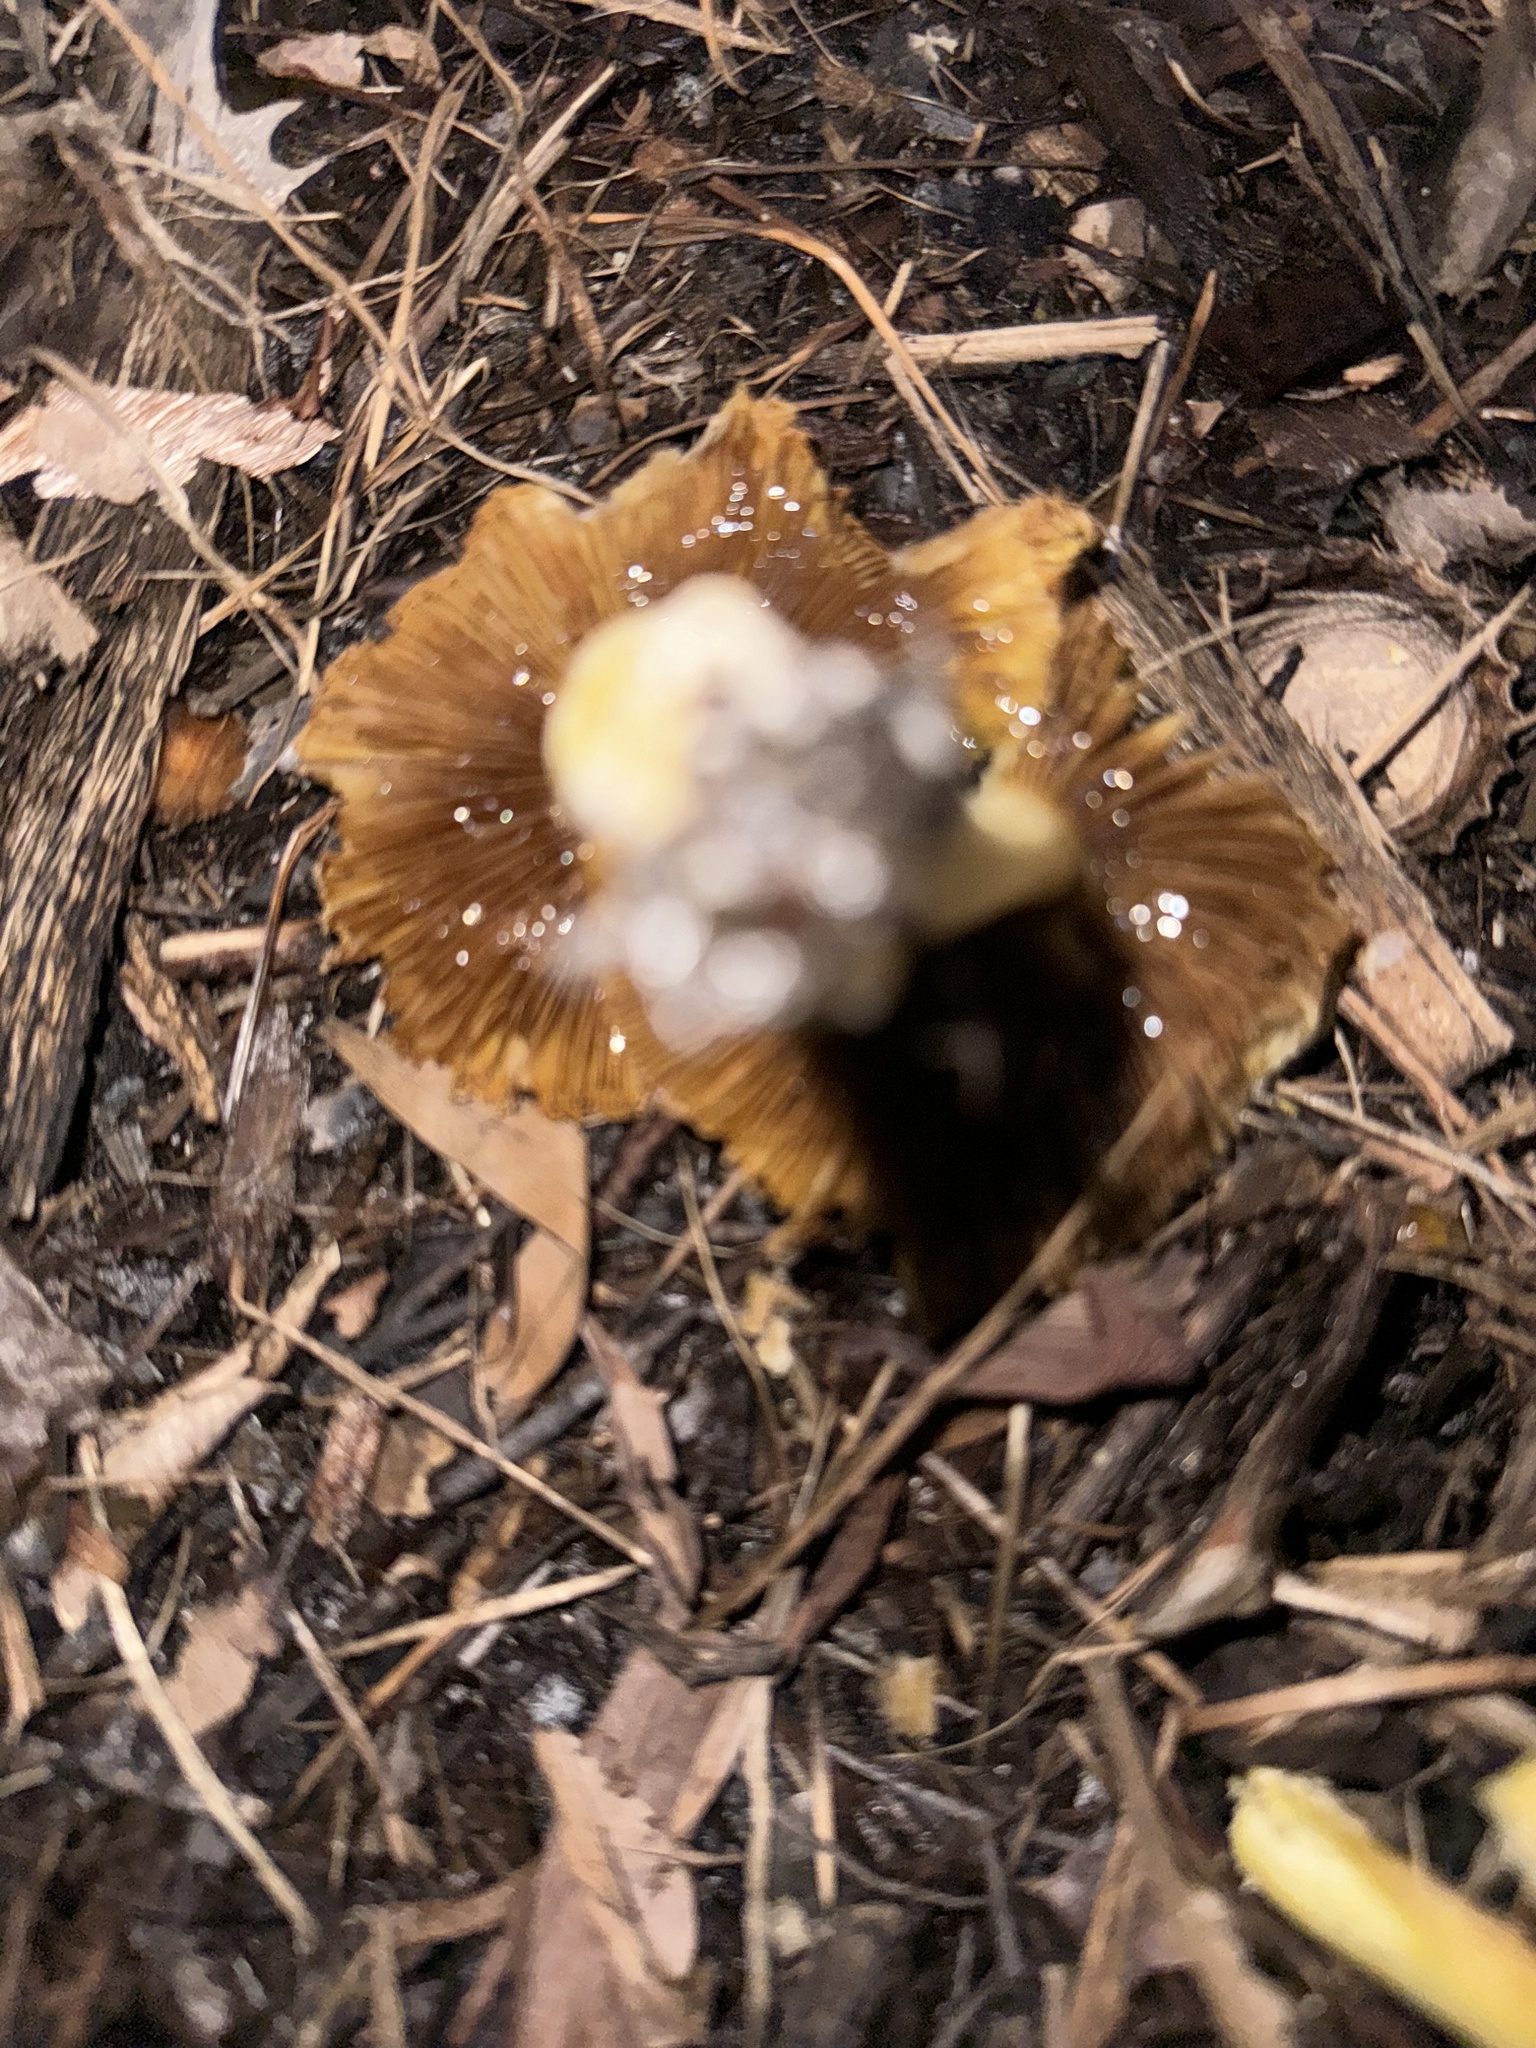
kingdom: Fungi
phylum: Basidiomycota
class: Agaricomycetes
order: Agaricales
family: Bolbitiaceae
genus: Bolbitius
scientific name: Bolbitius titubans
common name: Yellow fieldcap
